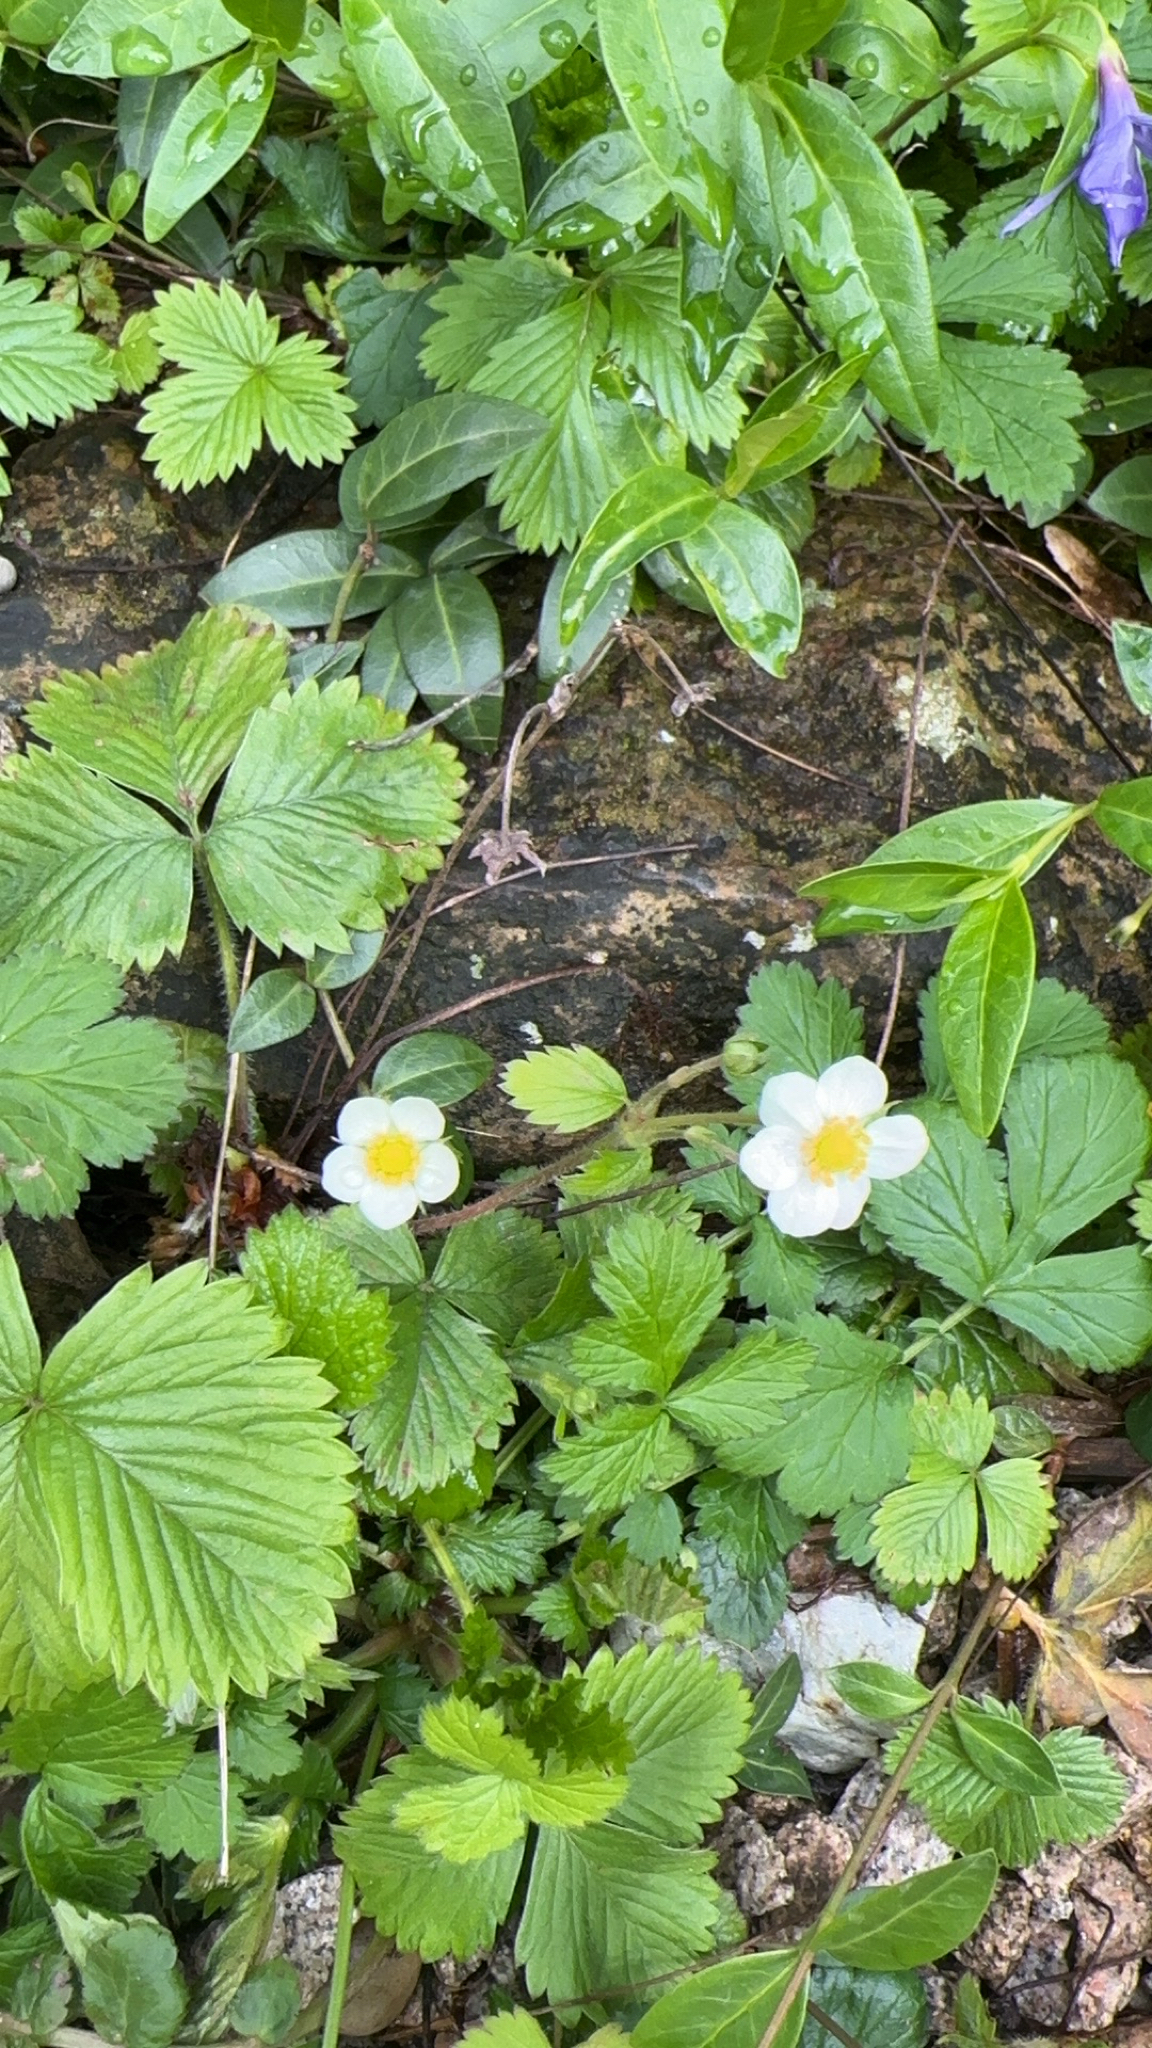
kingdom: Plantae
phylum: Tracheophyta
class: Magnoliopsida
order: Rosales
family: Rosaceae
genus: Fragaria
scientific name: Fragaria vesca
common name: Wild strawberry
